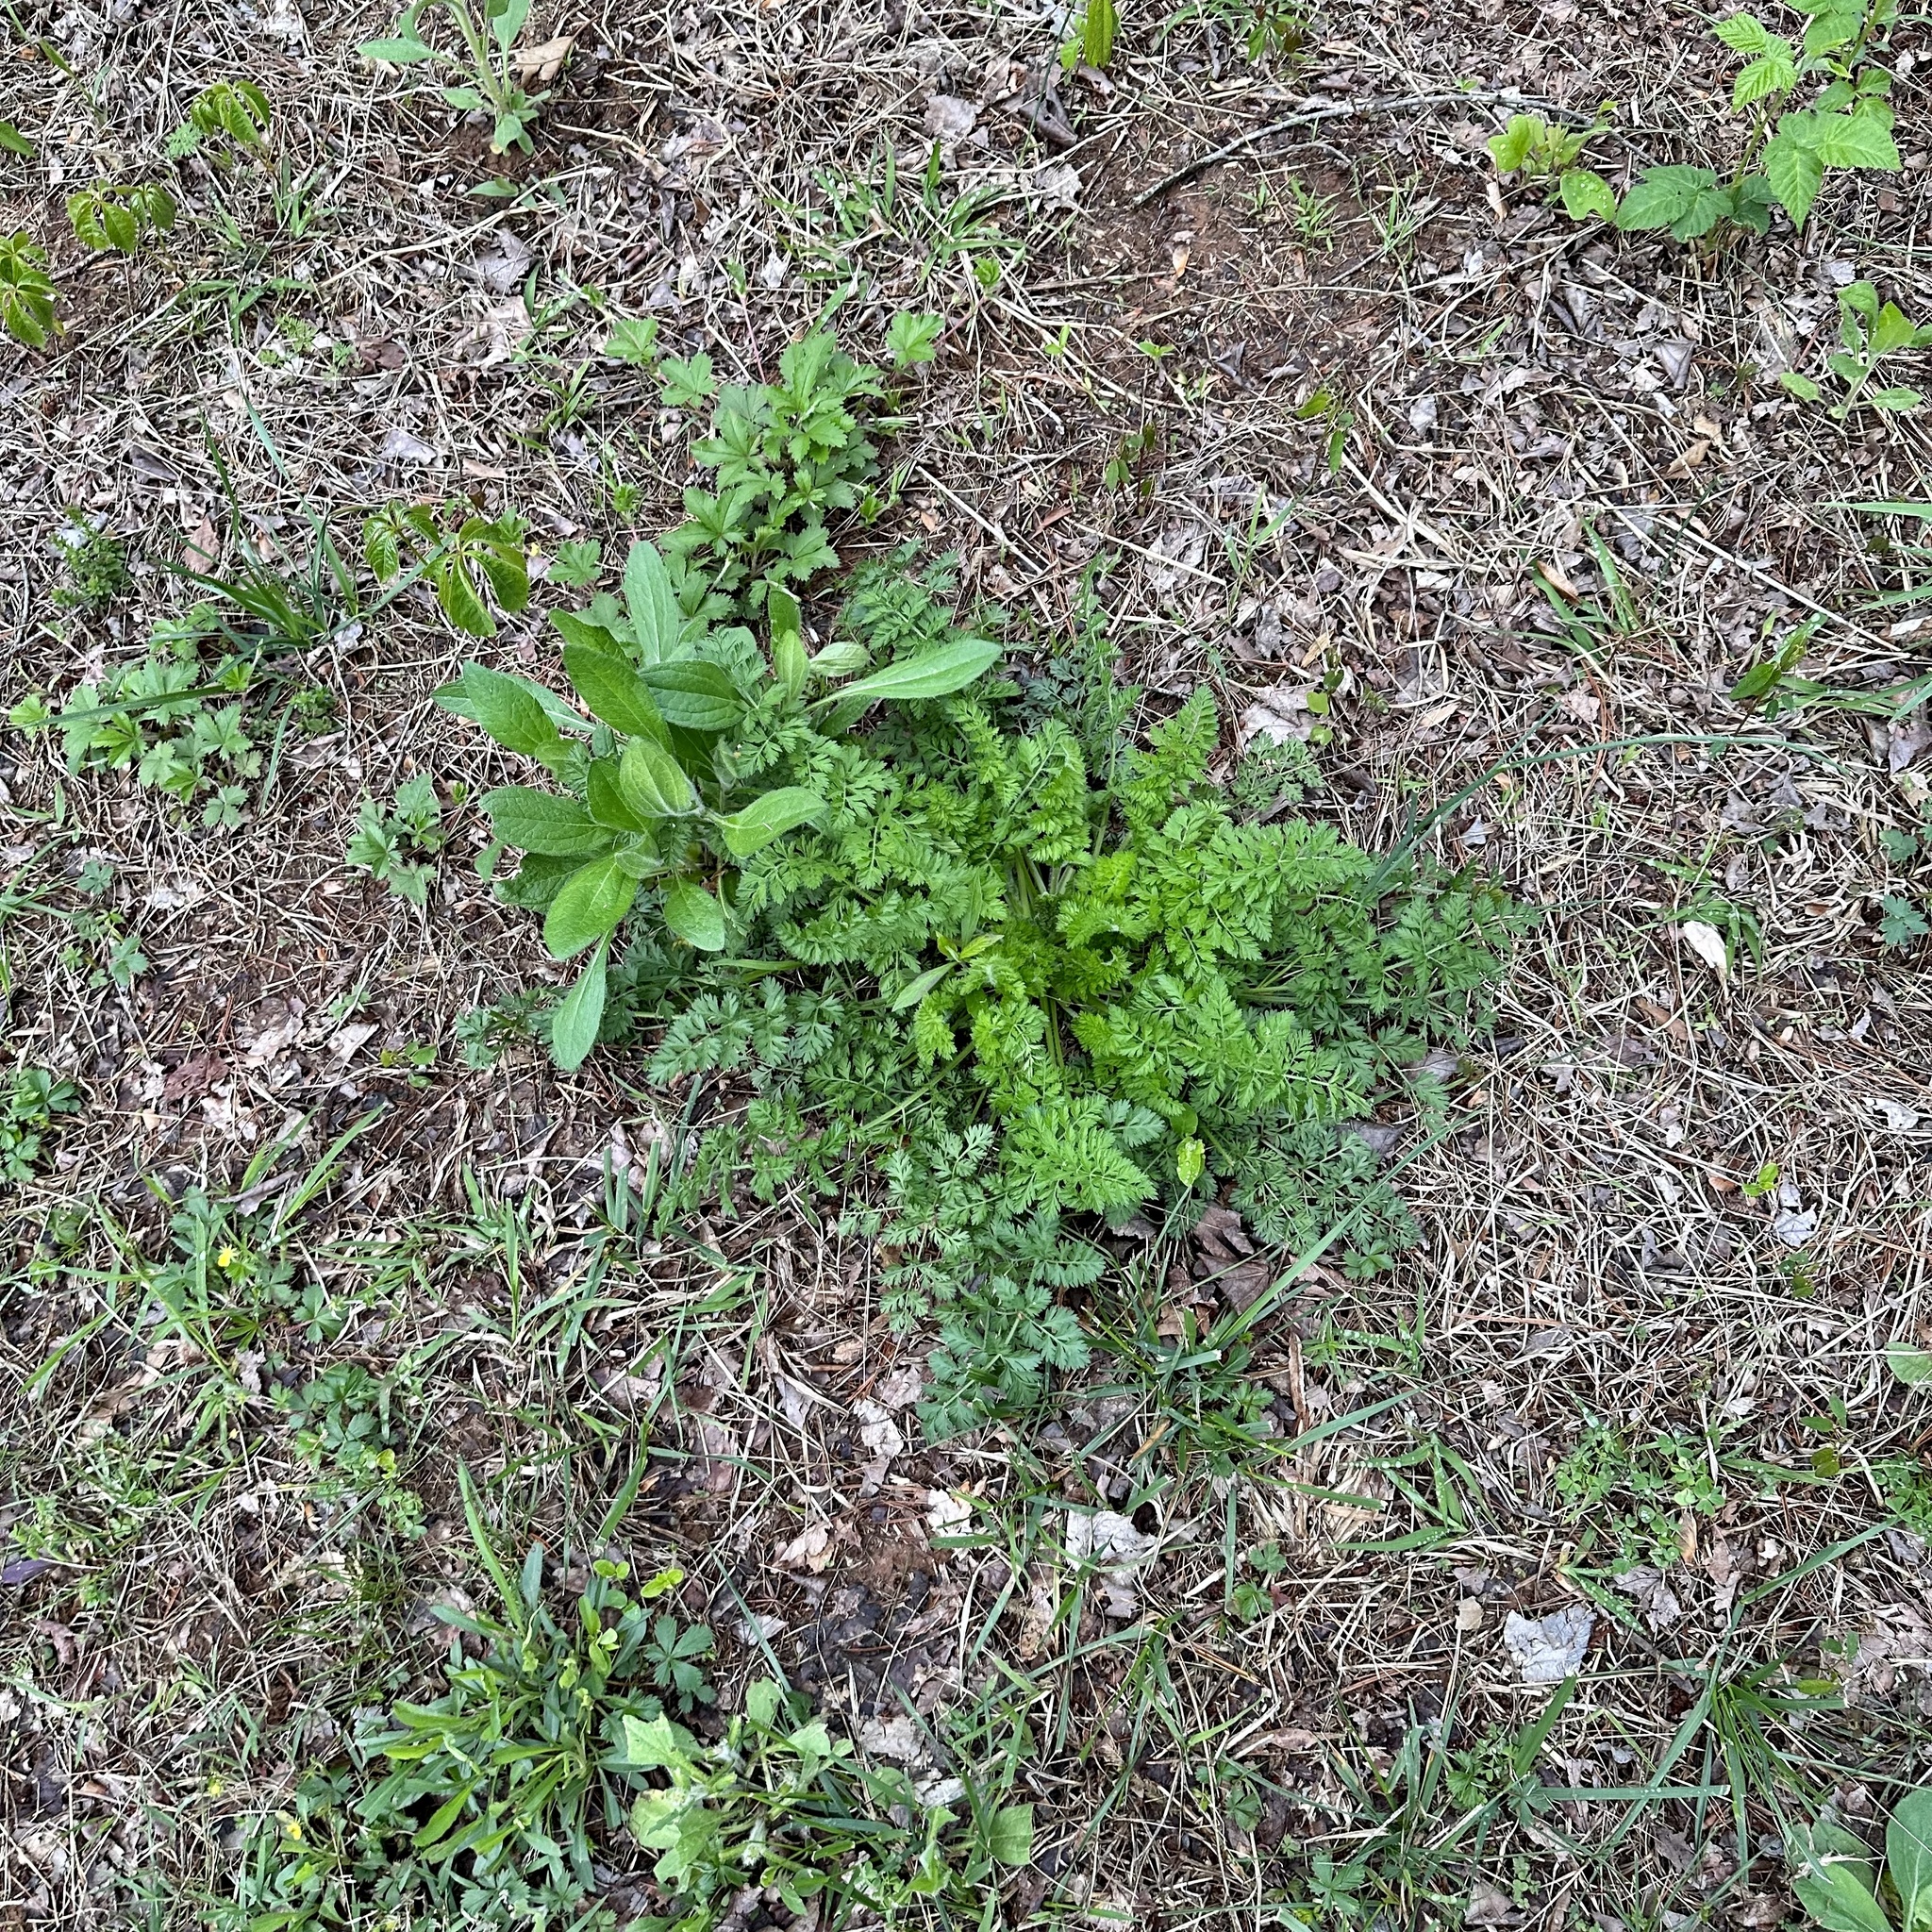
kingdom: Plantae
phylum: Tracheophyta
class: Magnoliopsida
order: Apiales
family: Apiaceae
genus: Daucus
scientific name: Daucus carota
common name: Wild carrot
